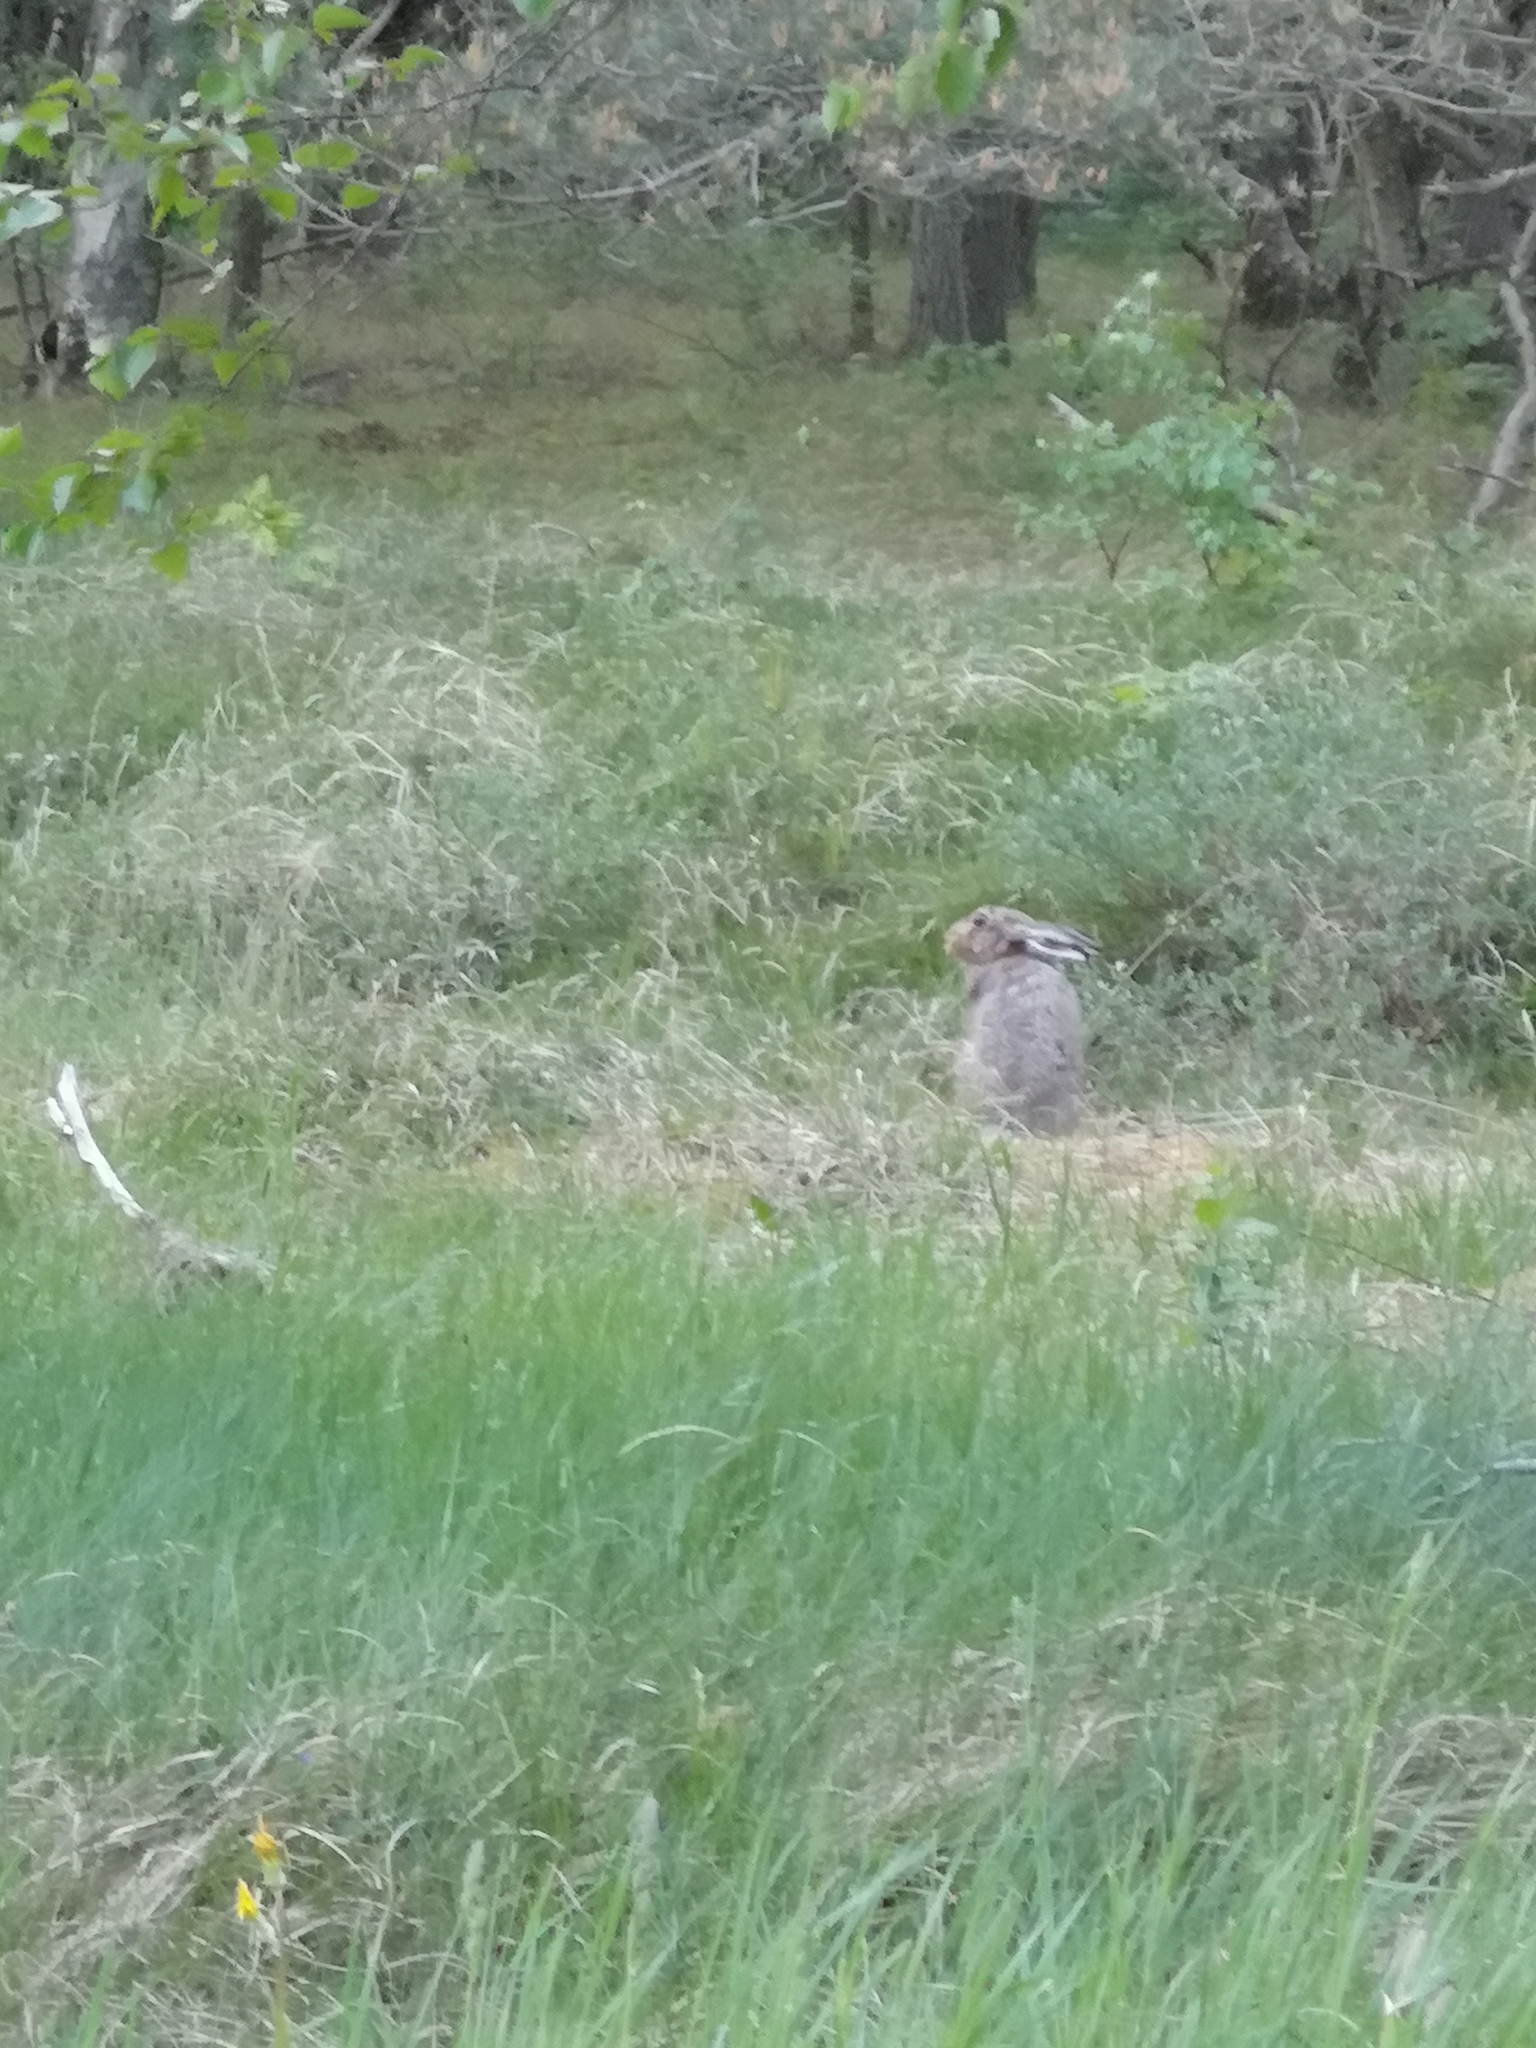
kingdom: Animalia
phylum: Chordata
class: Mammalia
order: Lagomorpha
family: Leporidae
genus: Lepus
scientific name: Lepus europaeus
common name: European hare
